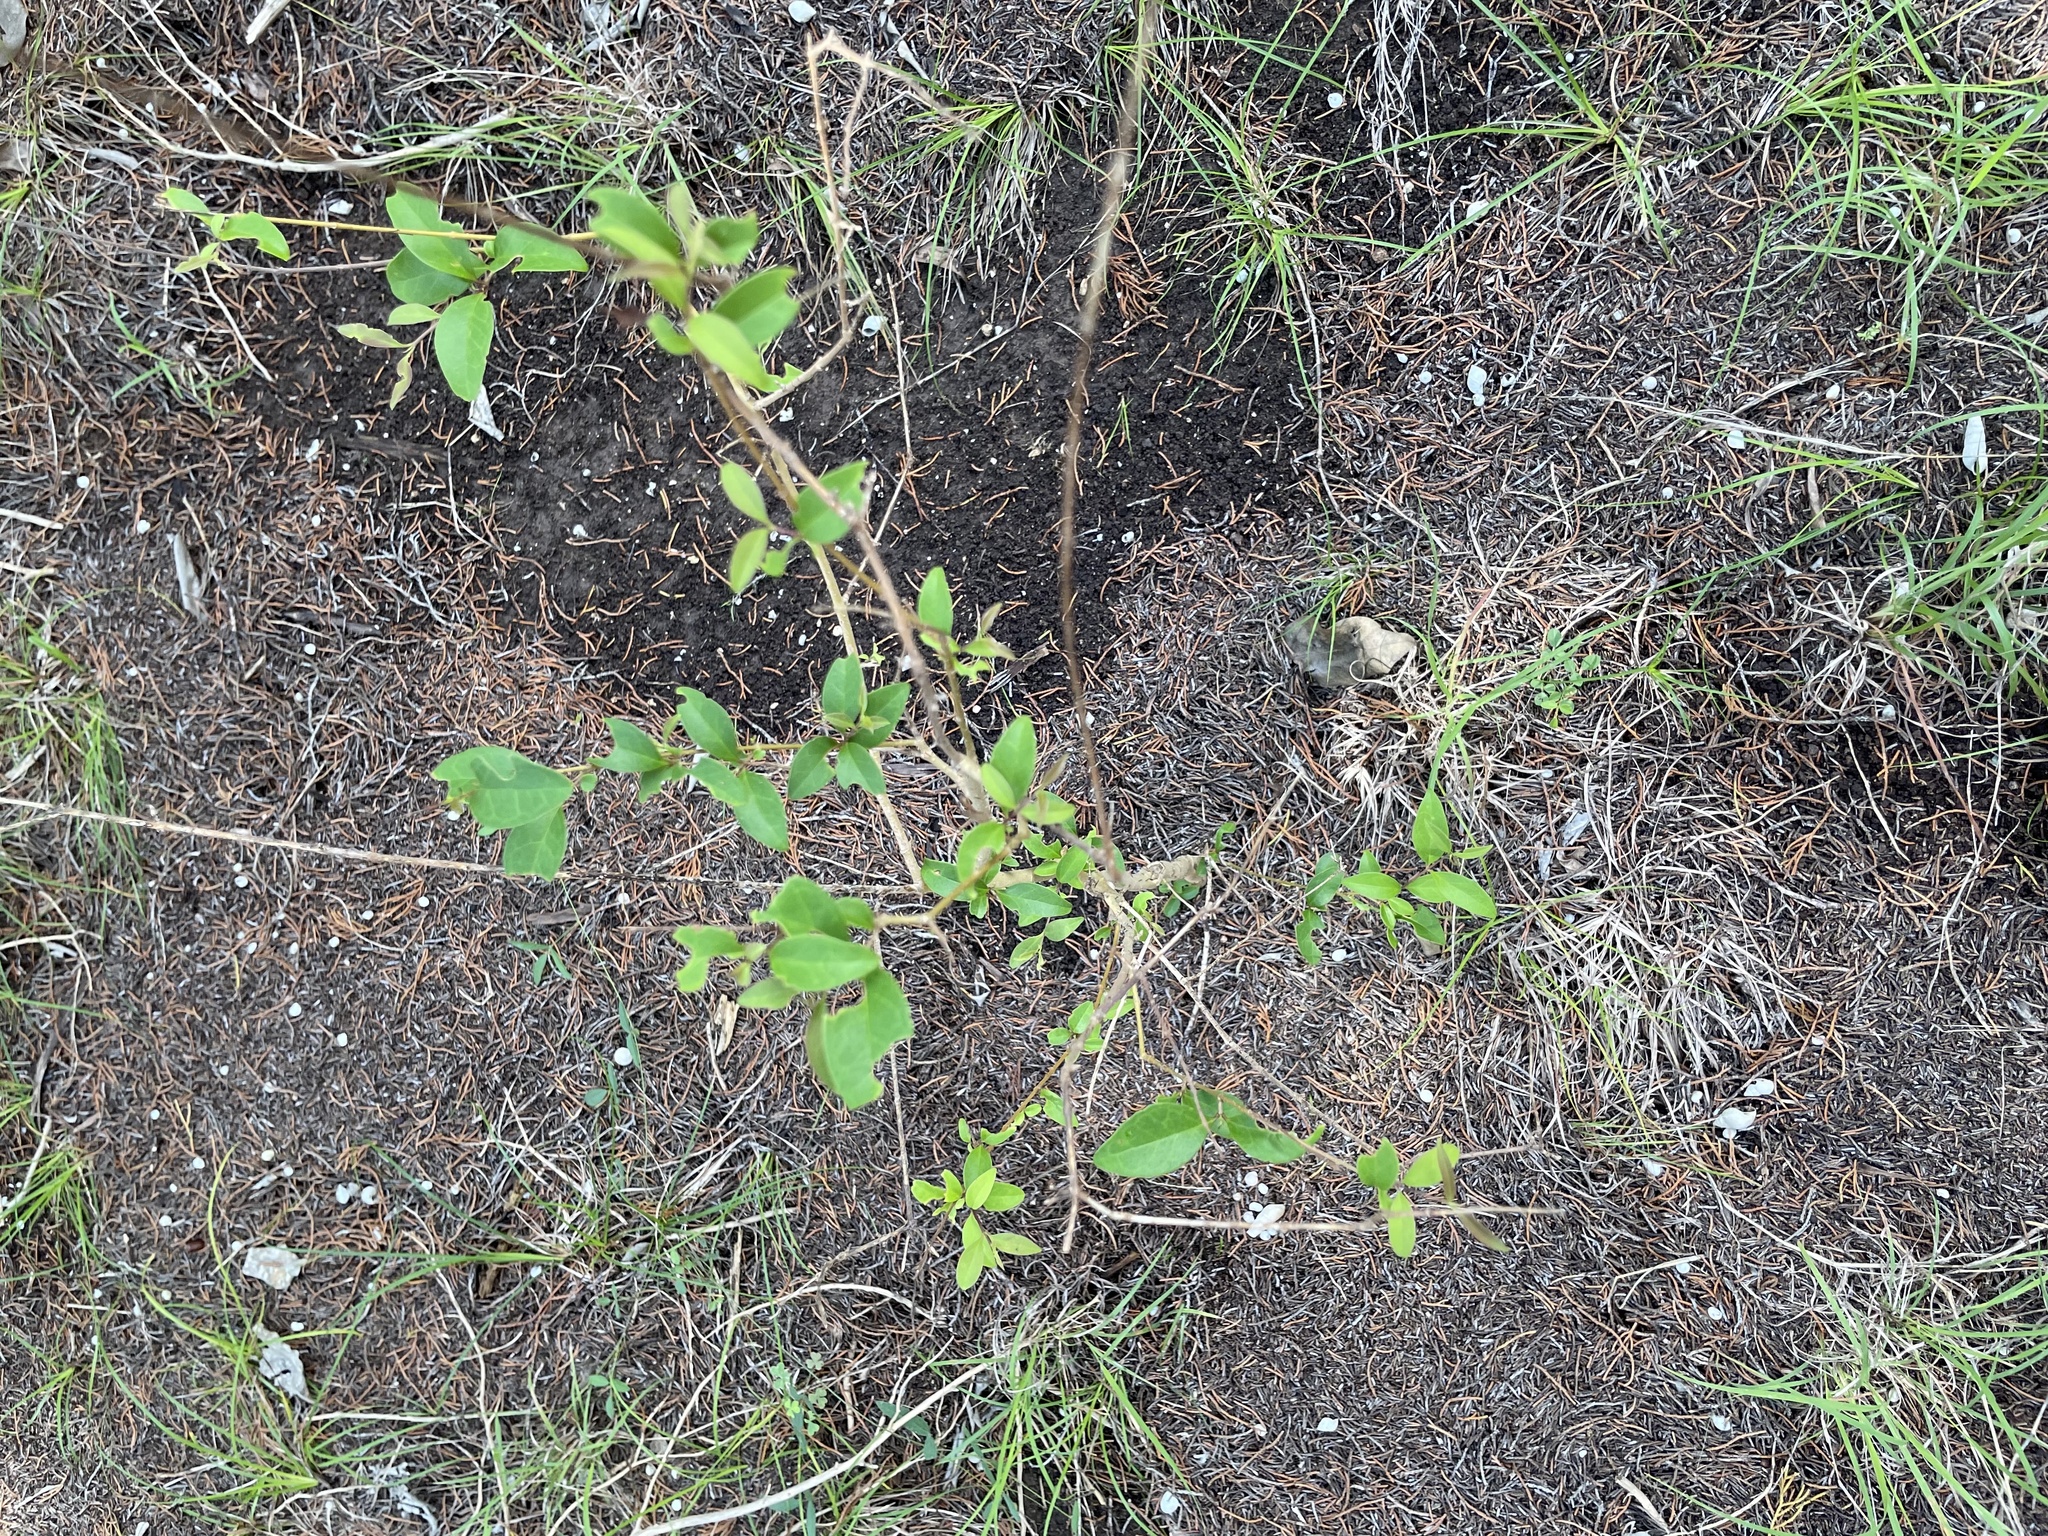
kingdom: Plantae
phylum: Tracheophyta
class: Magnoliopsida
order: Lamiales
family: Oleaceae
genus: Ligustrum
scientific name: Ligustrum lucidum
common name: Glossy privet
